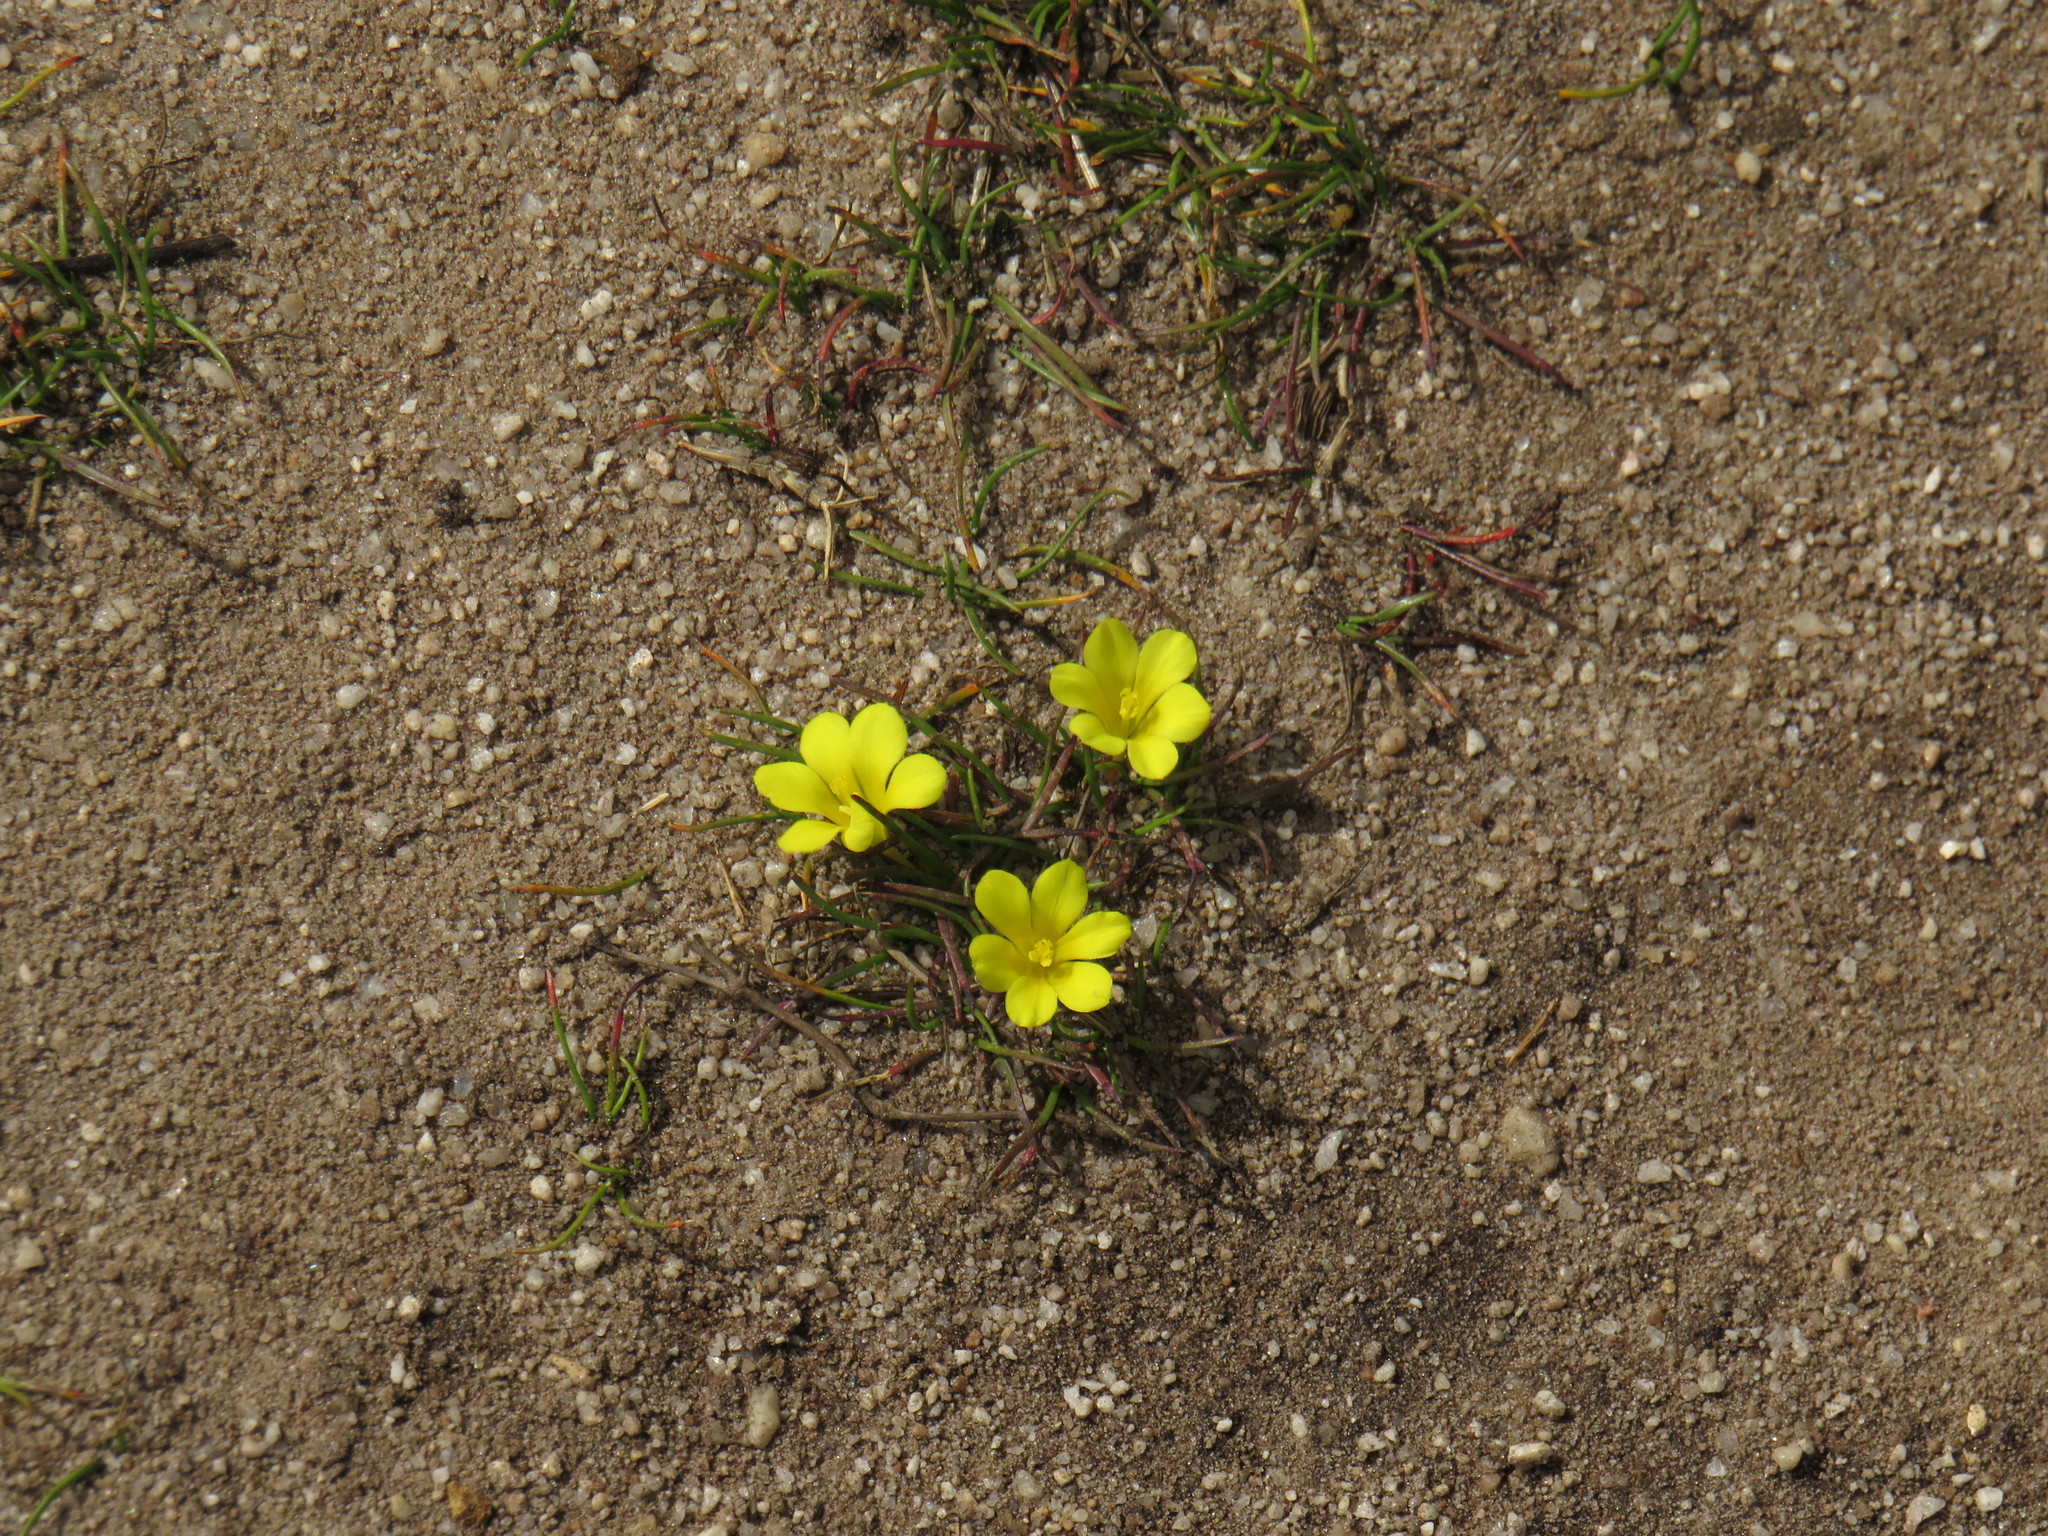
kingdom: Plantae
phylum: Tracheophyta
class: Liliopsida
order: Asparagales
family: Iridaceae
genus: Moraea
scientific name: Moraea fugacissima
